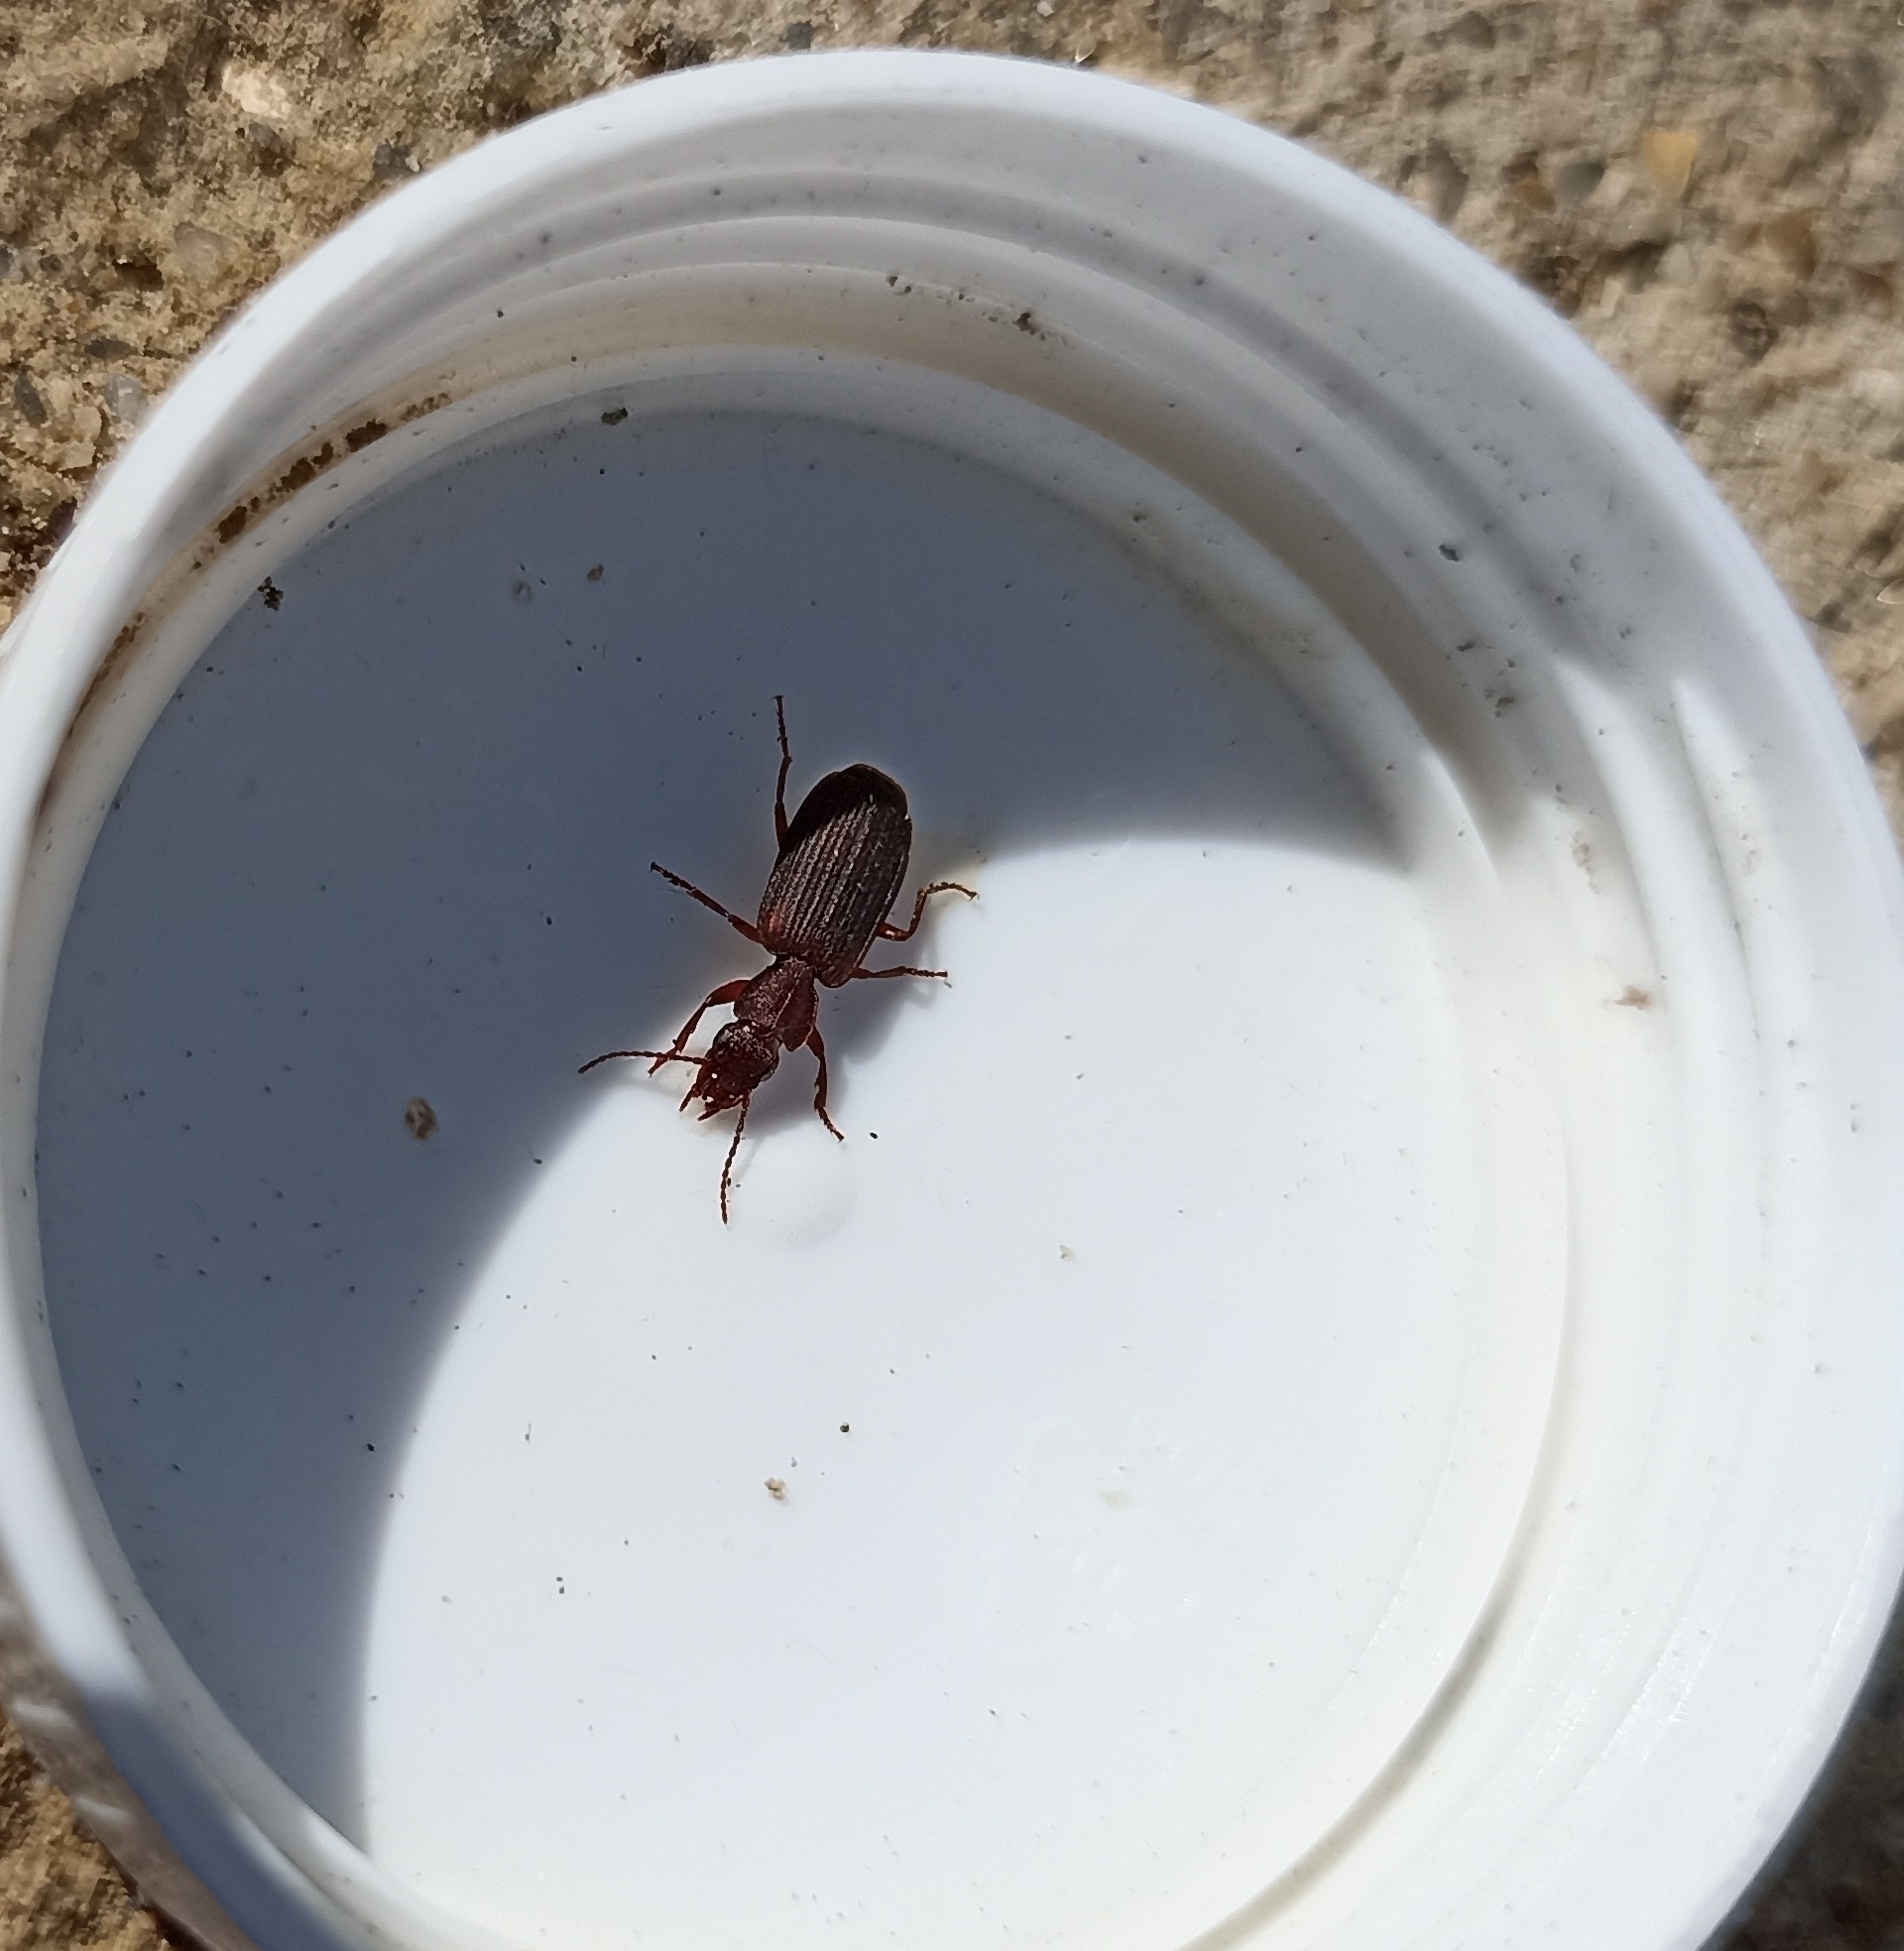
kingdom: Animalia
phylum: Arthropoda
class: Insecta
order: Coleoptera
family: Carabidae
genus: Platytarus
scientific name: Platytarus faminii
